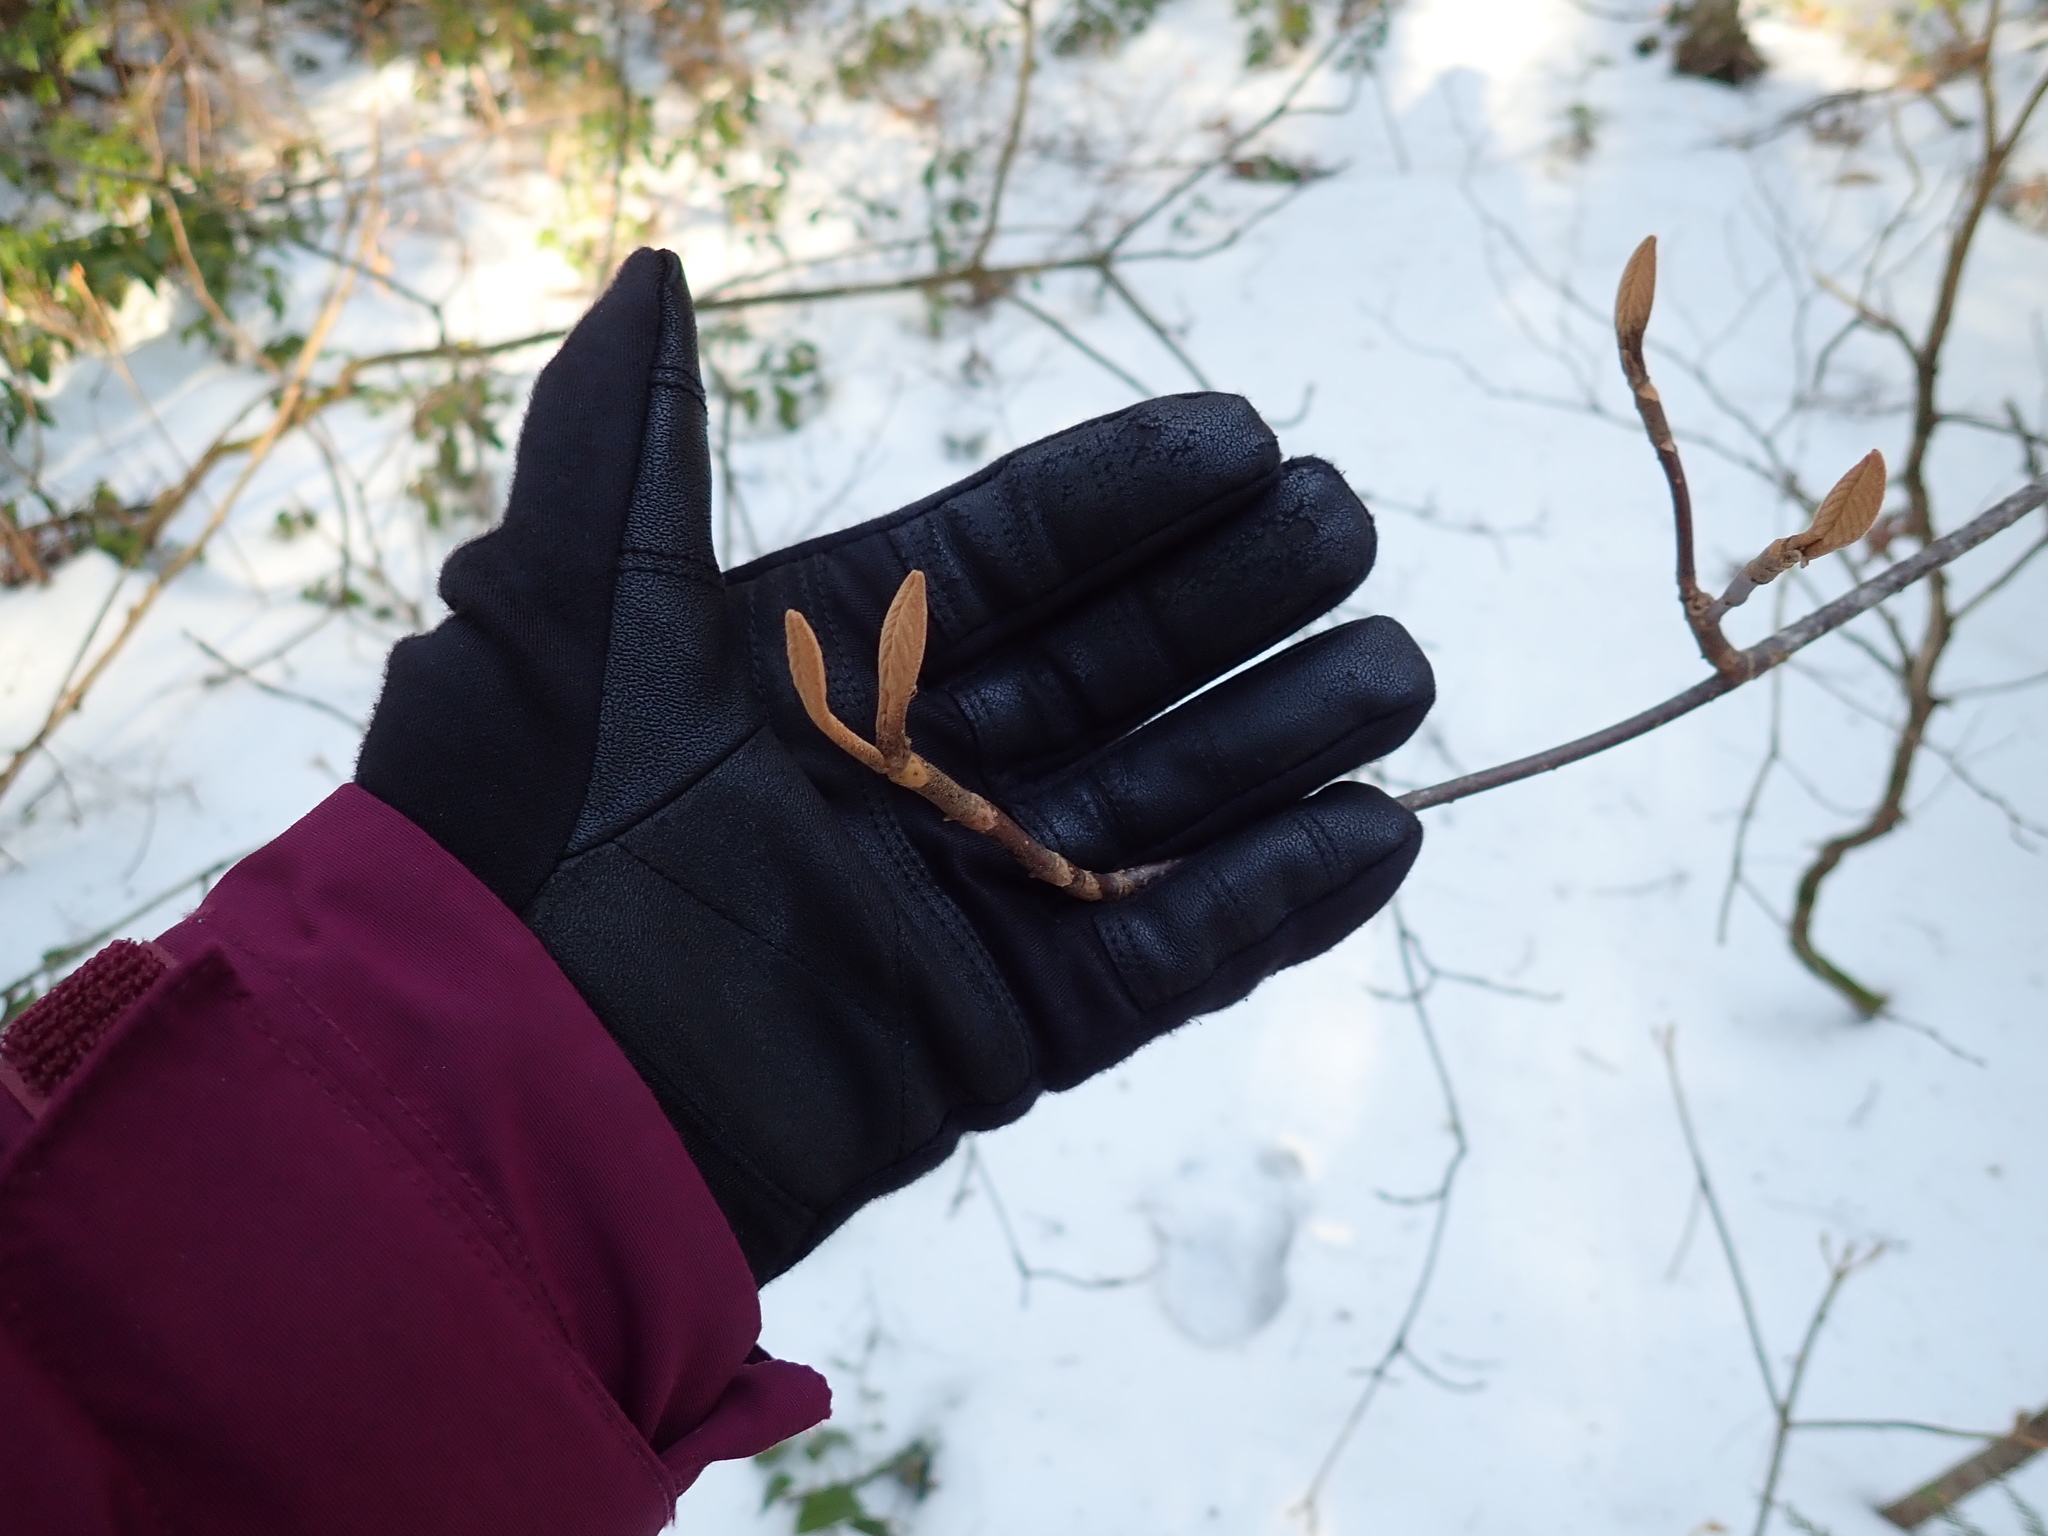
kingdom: Plantae
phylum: Tracheophyta
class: Magnoliopsida
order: Dipsacales
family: Viburnaceae
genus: Viburnum
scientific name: Viburnum lantanoides
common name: Hobblebush
